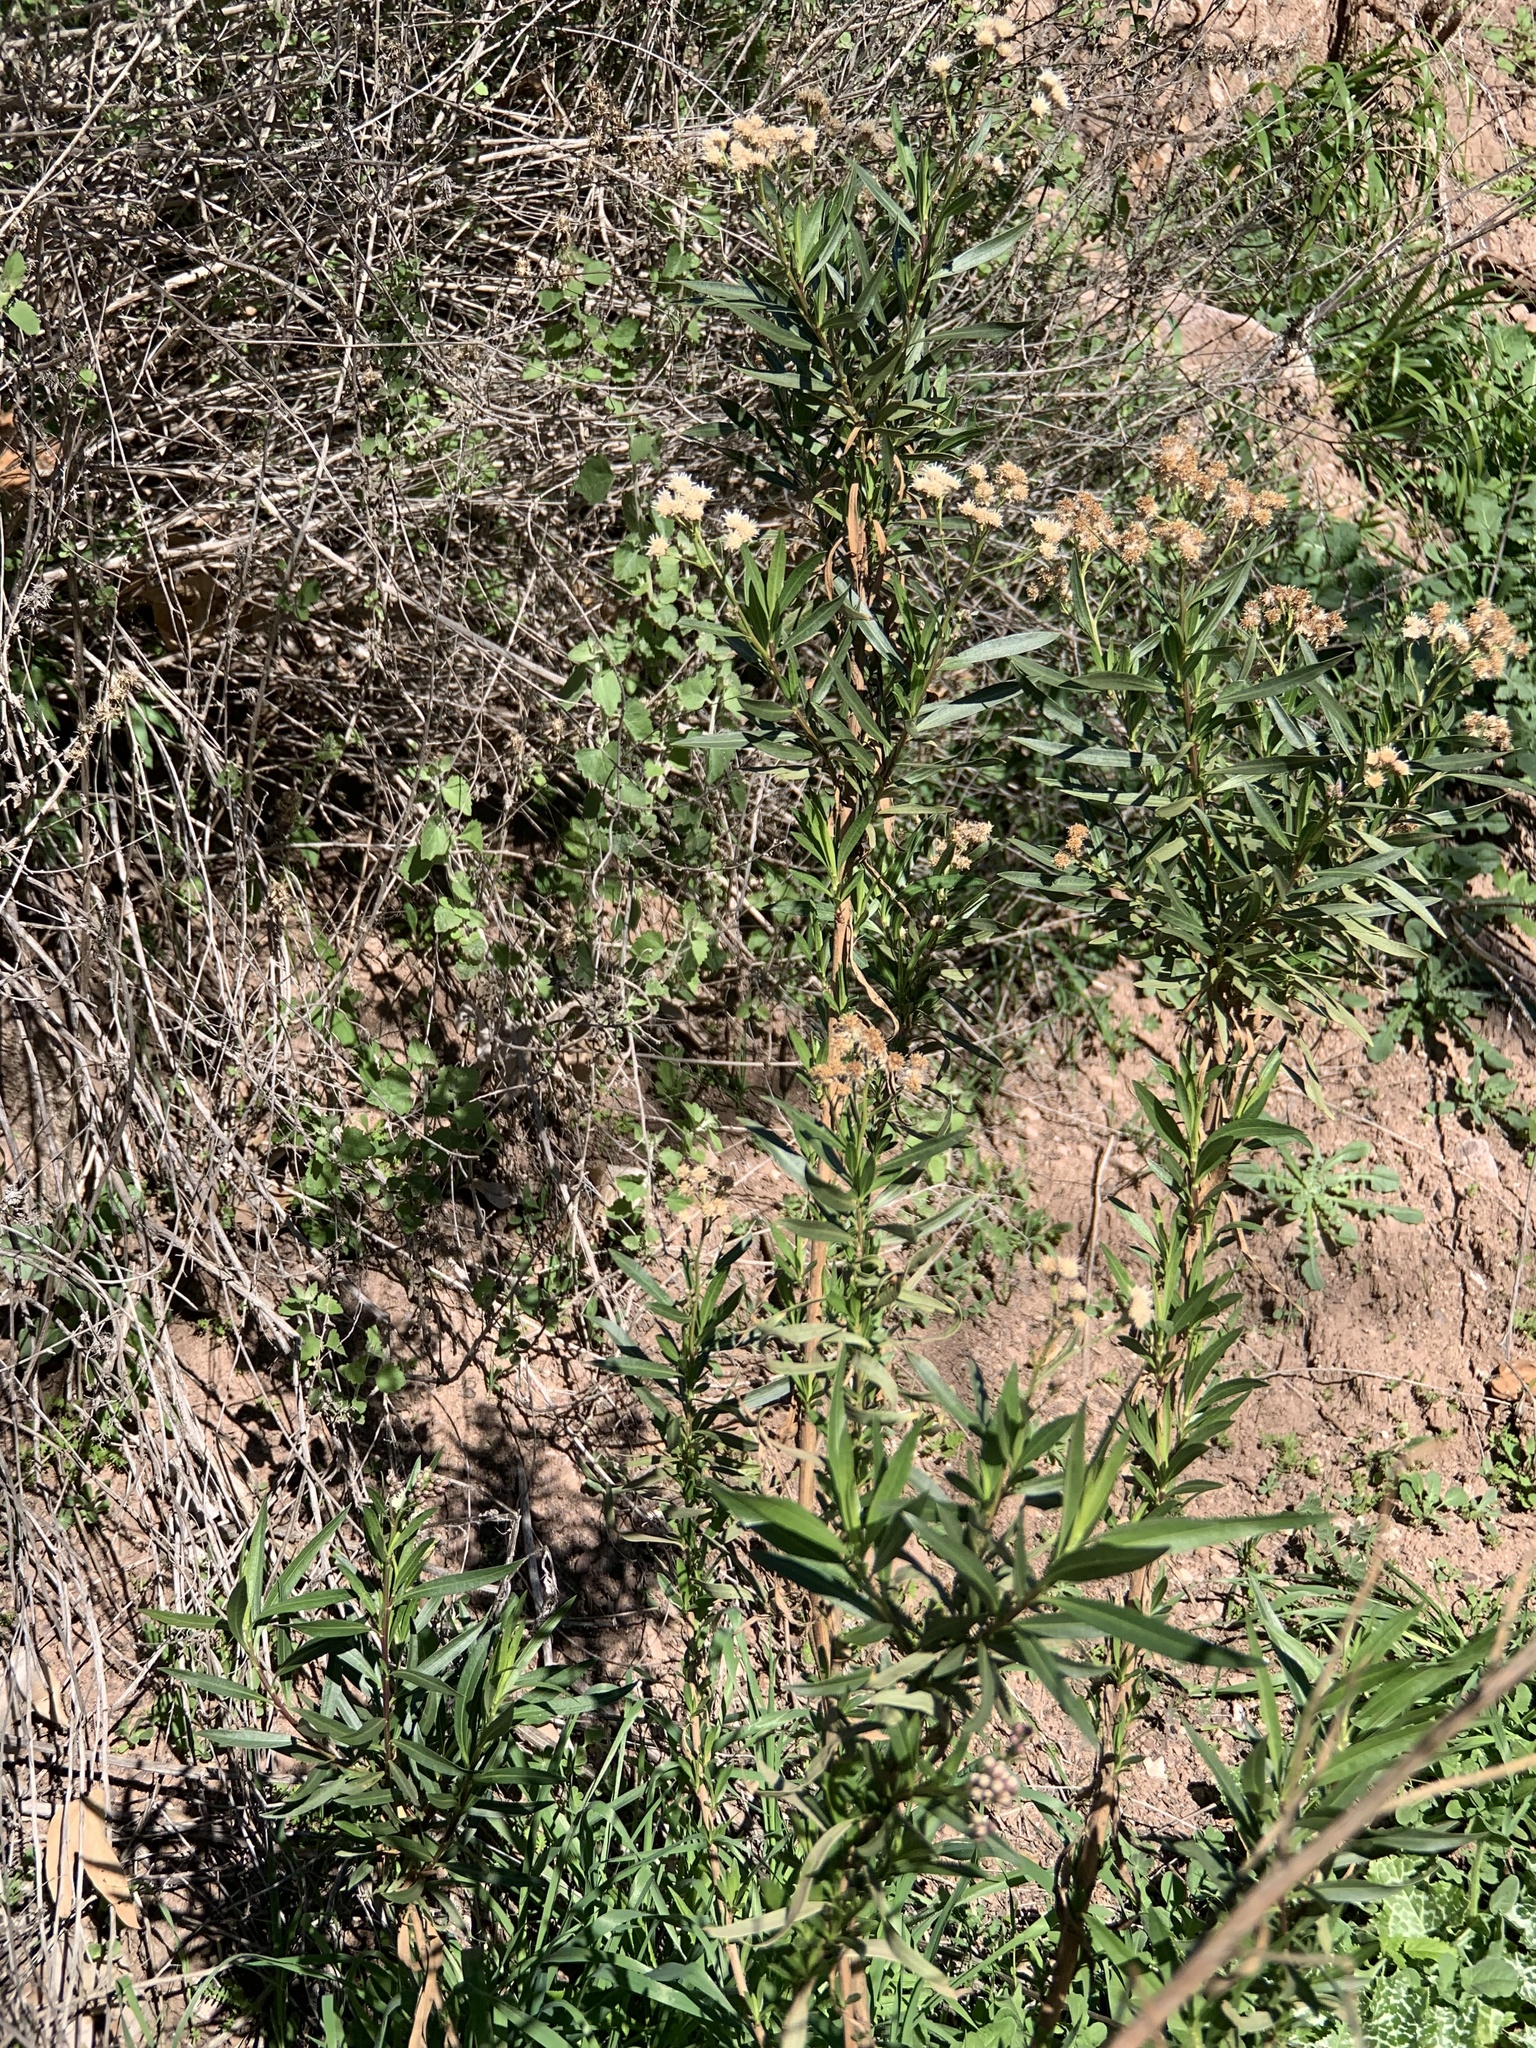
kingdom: Plantae
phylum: Tracheophyta
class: Magnoliopsida
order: Asterales
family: Asteraceae
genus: Baccharis
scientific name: Baccharis salicifolia
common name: Sticky baccharis
